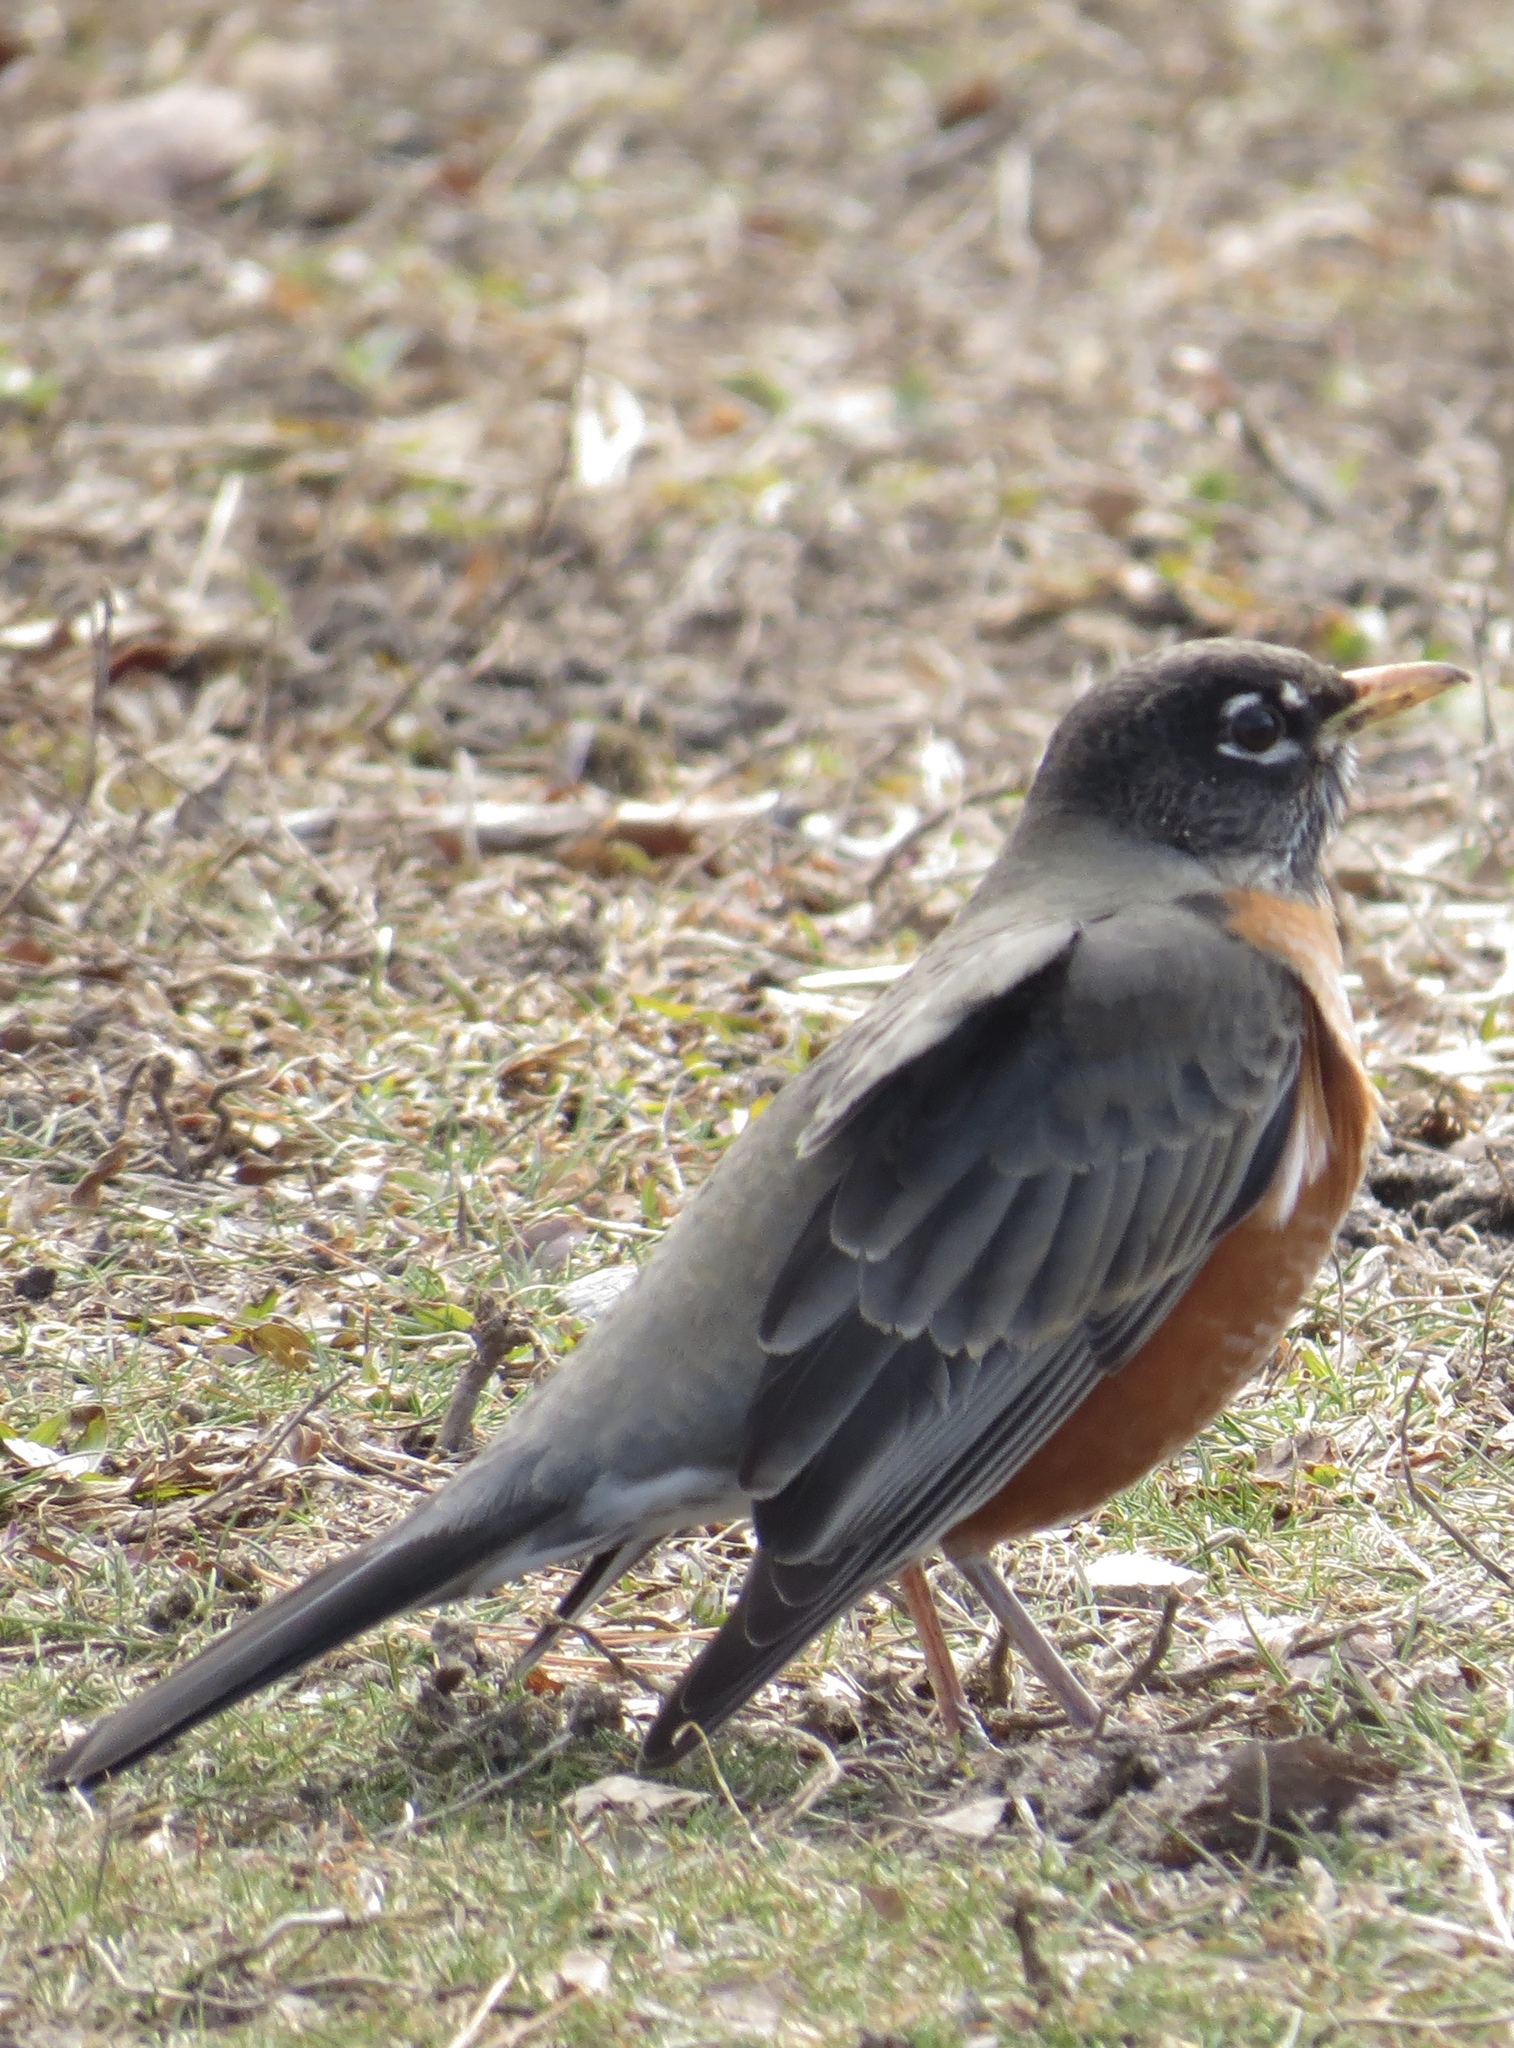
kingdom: Animalia
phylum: Chordata
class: Aves
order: Passeriformes
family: Turdidae
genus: Turdus
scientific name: Turdus migratorius
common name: American robin
